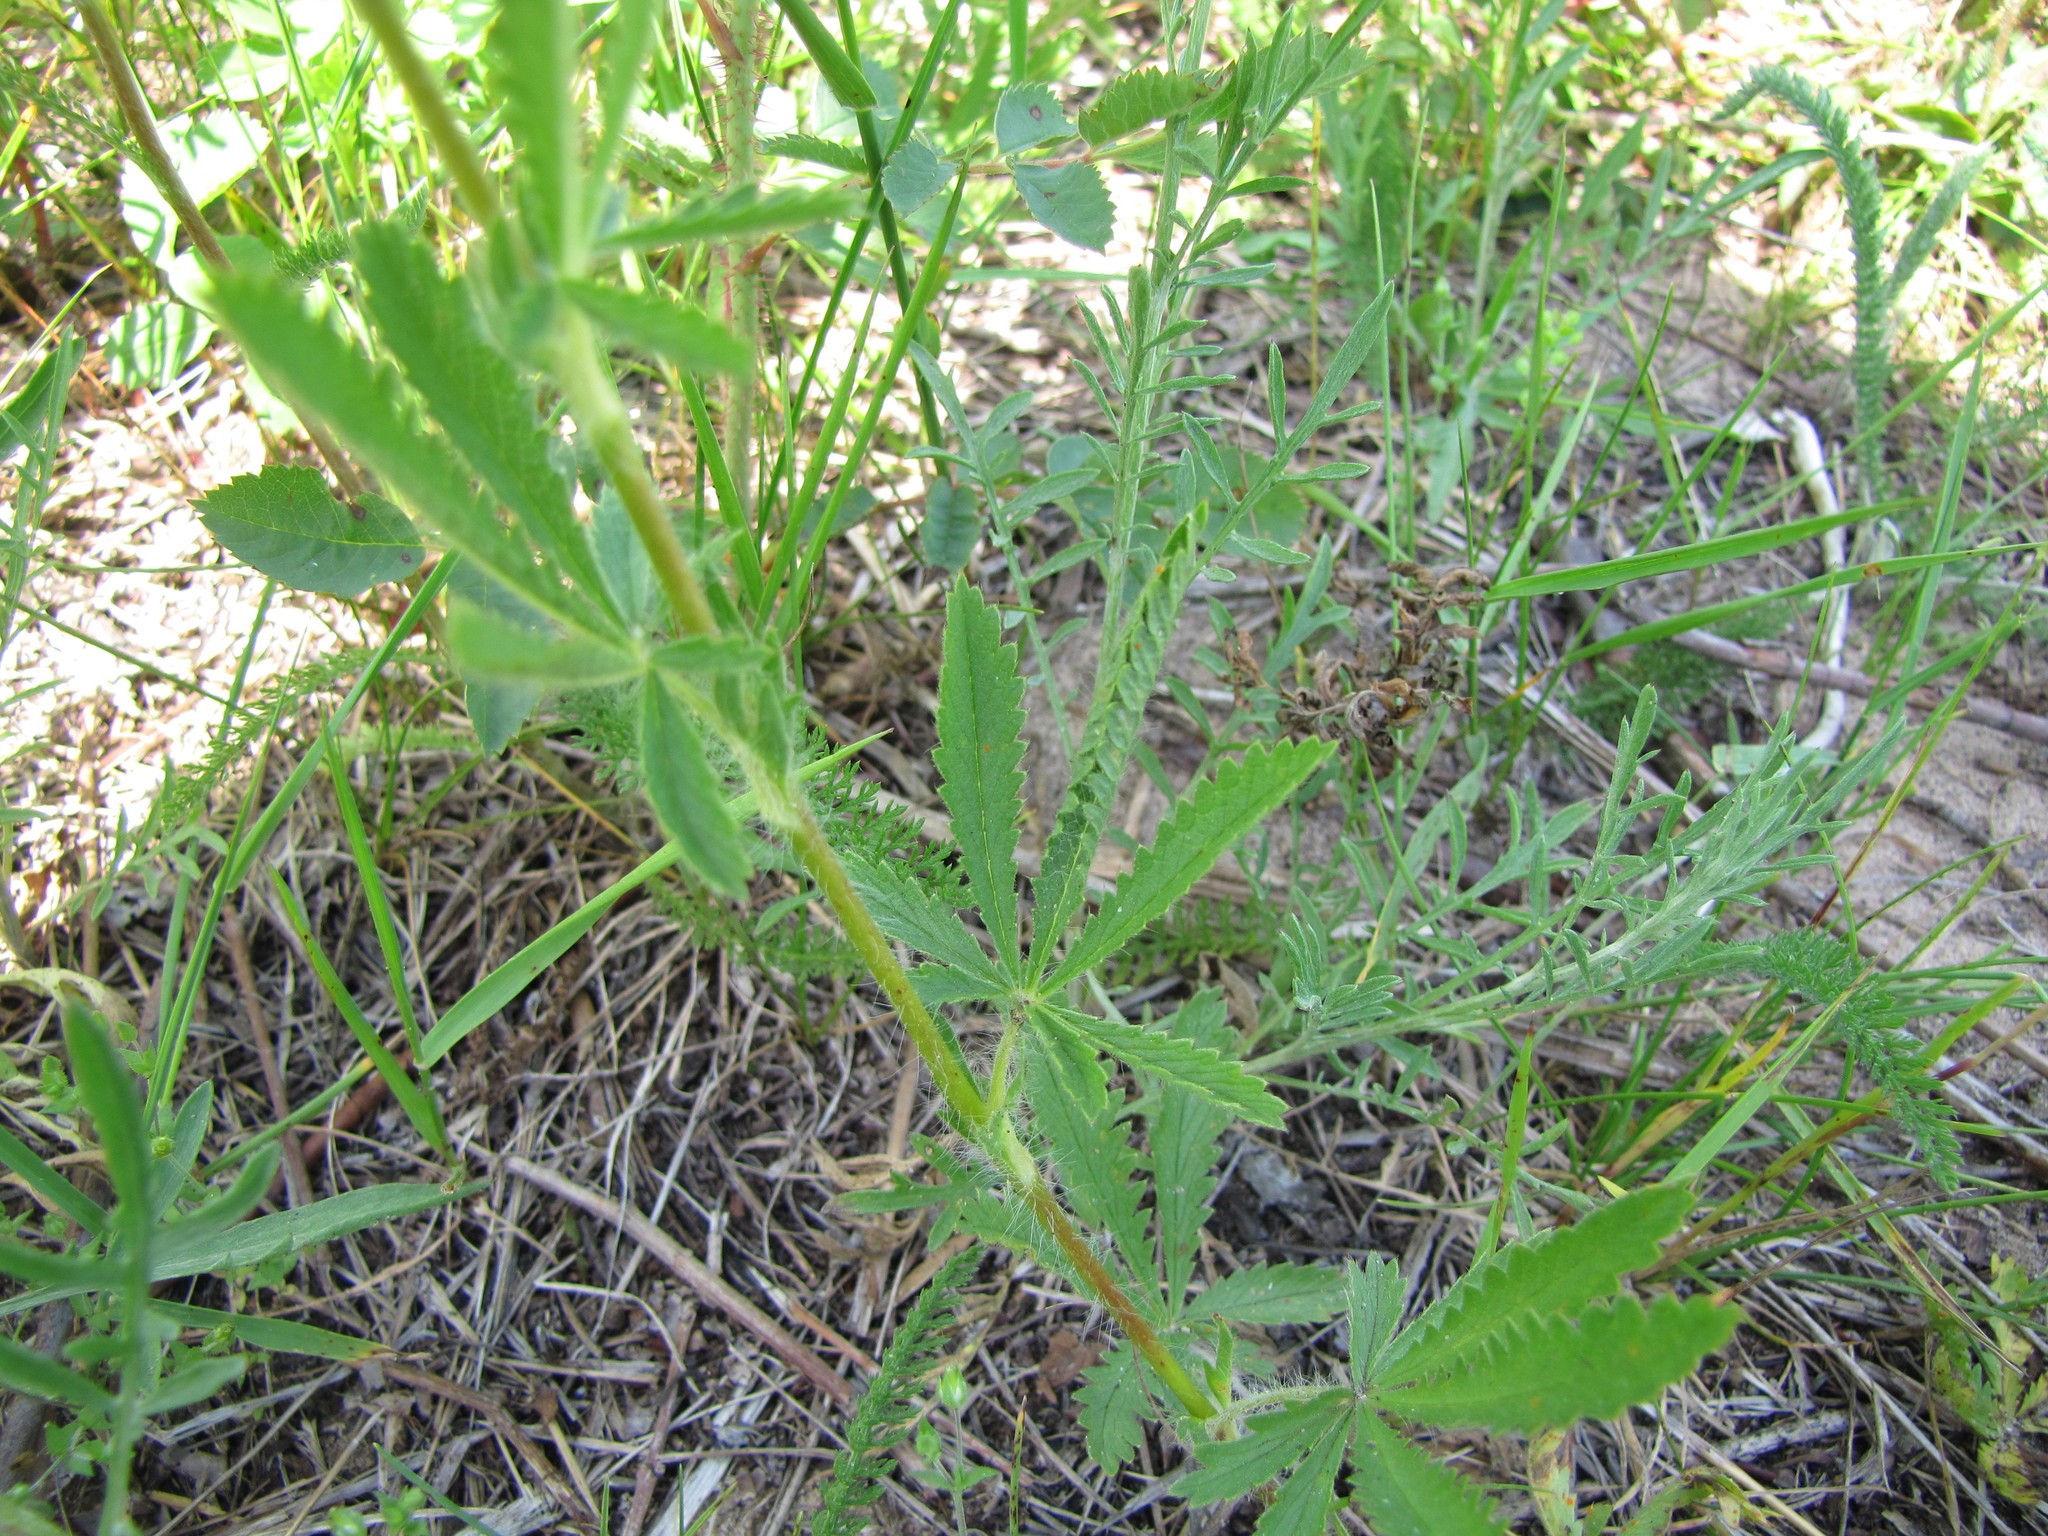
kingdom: Plantae
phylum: Tracheophyta
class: Magnoliopsida
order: Rosales
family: Rosaceae
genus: Potentilla
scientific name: Potentilla recta
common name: Sulphur cinquefoil
